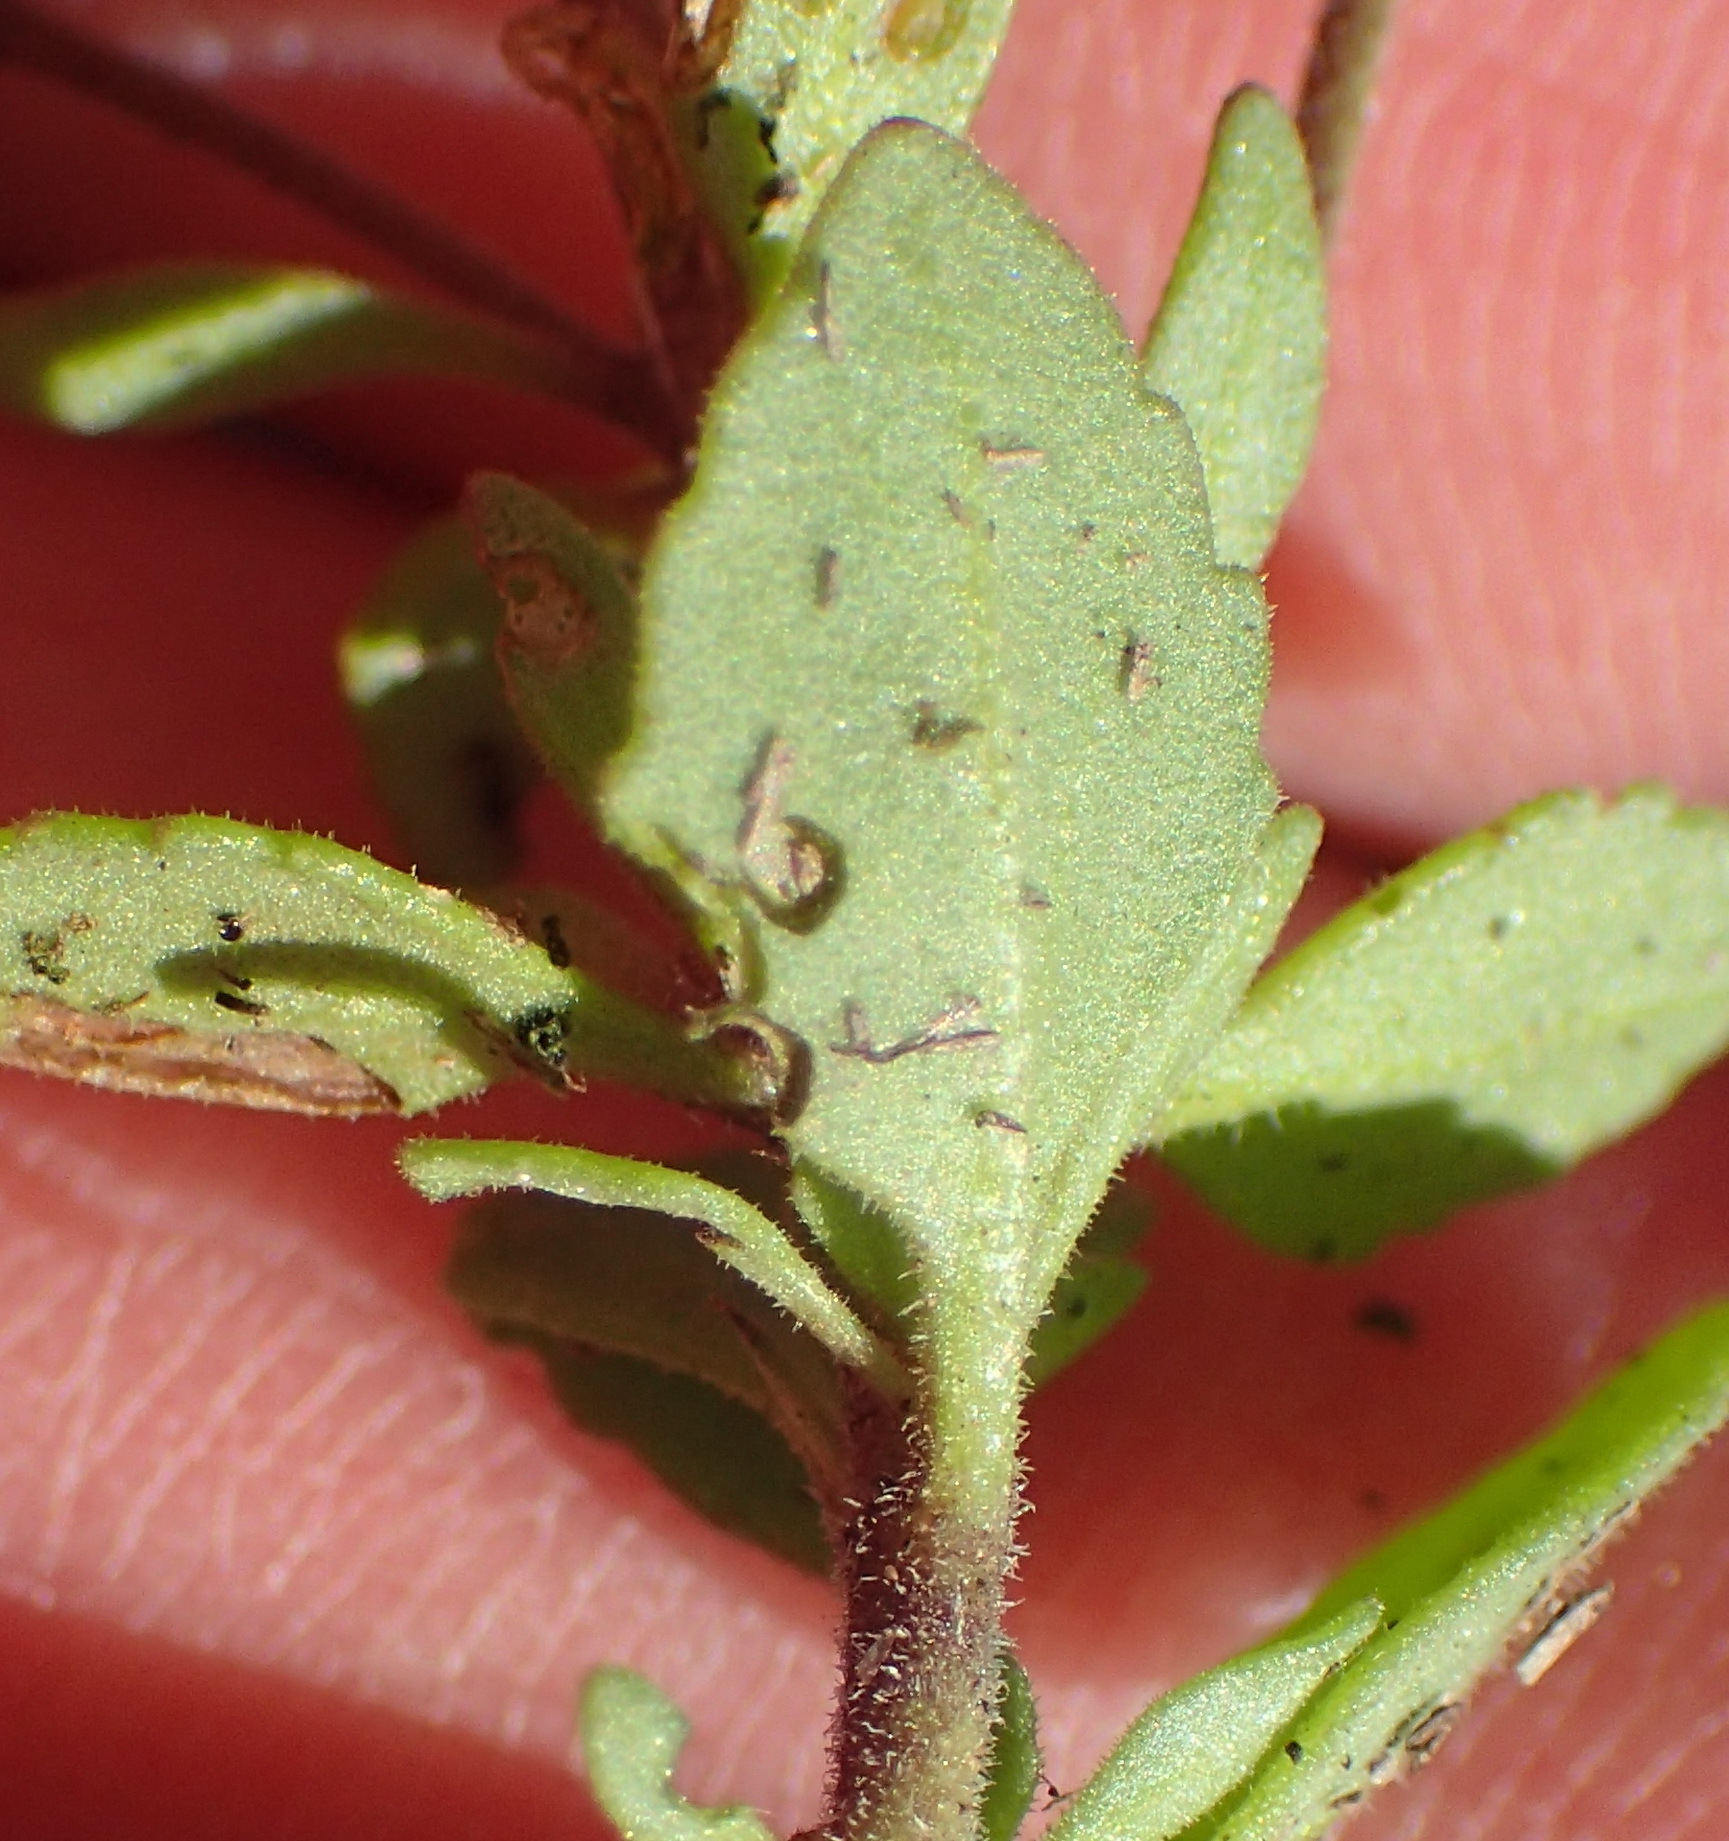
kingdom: Plantae
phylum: Tracheophyta
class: Magnoliopsida
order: Lamiales
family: Scrophulariaceae
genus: Chaenostoma
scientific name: Chaenostoma polyanthum
